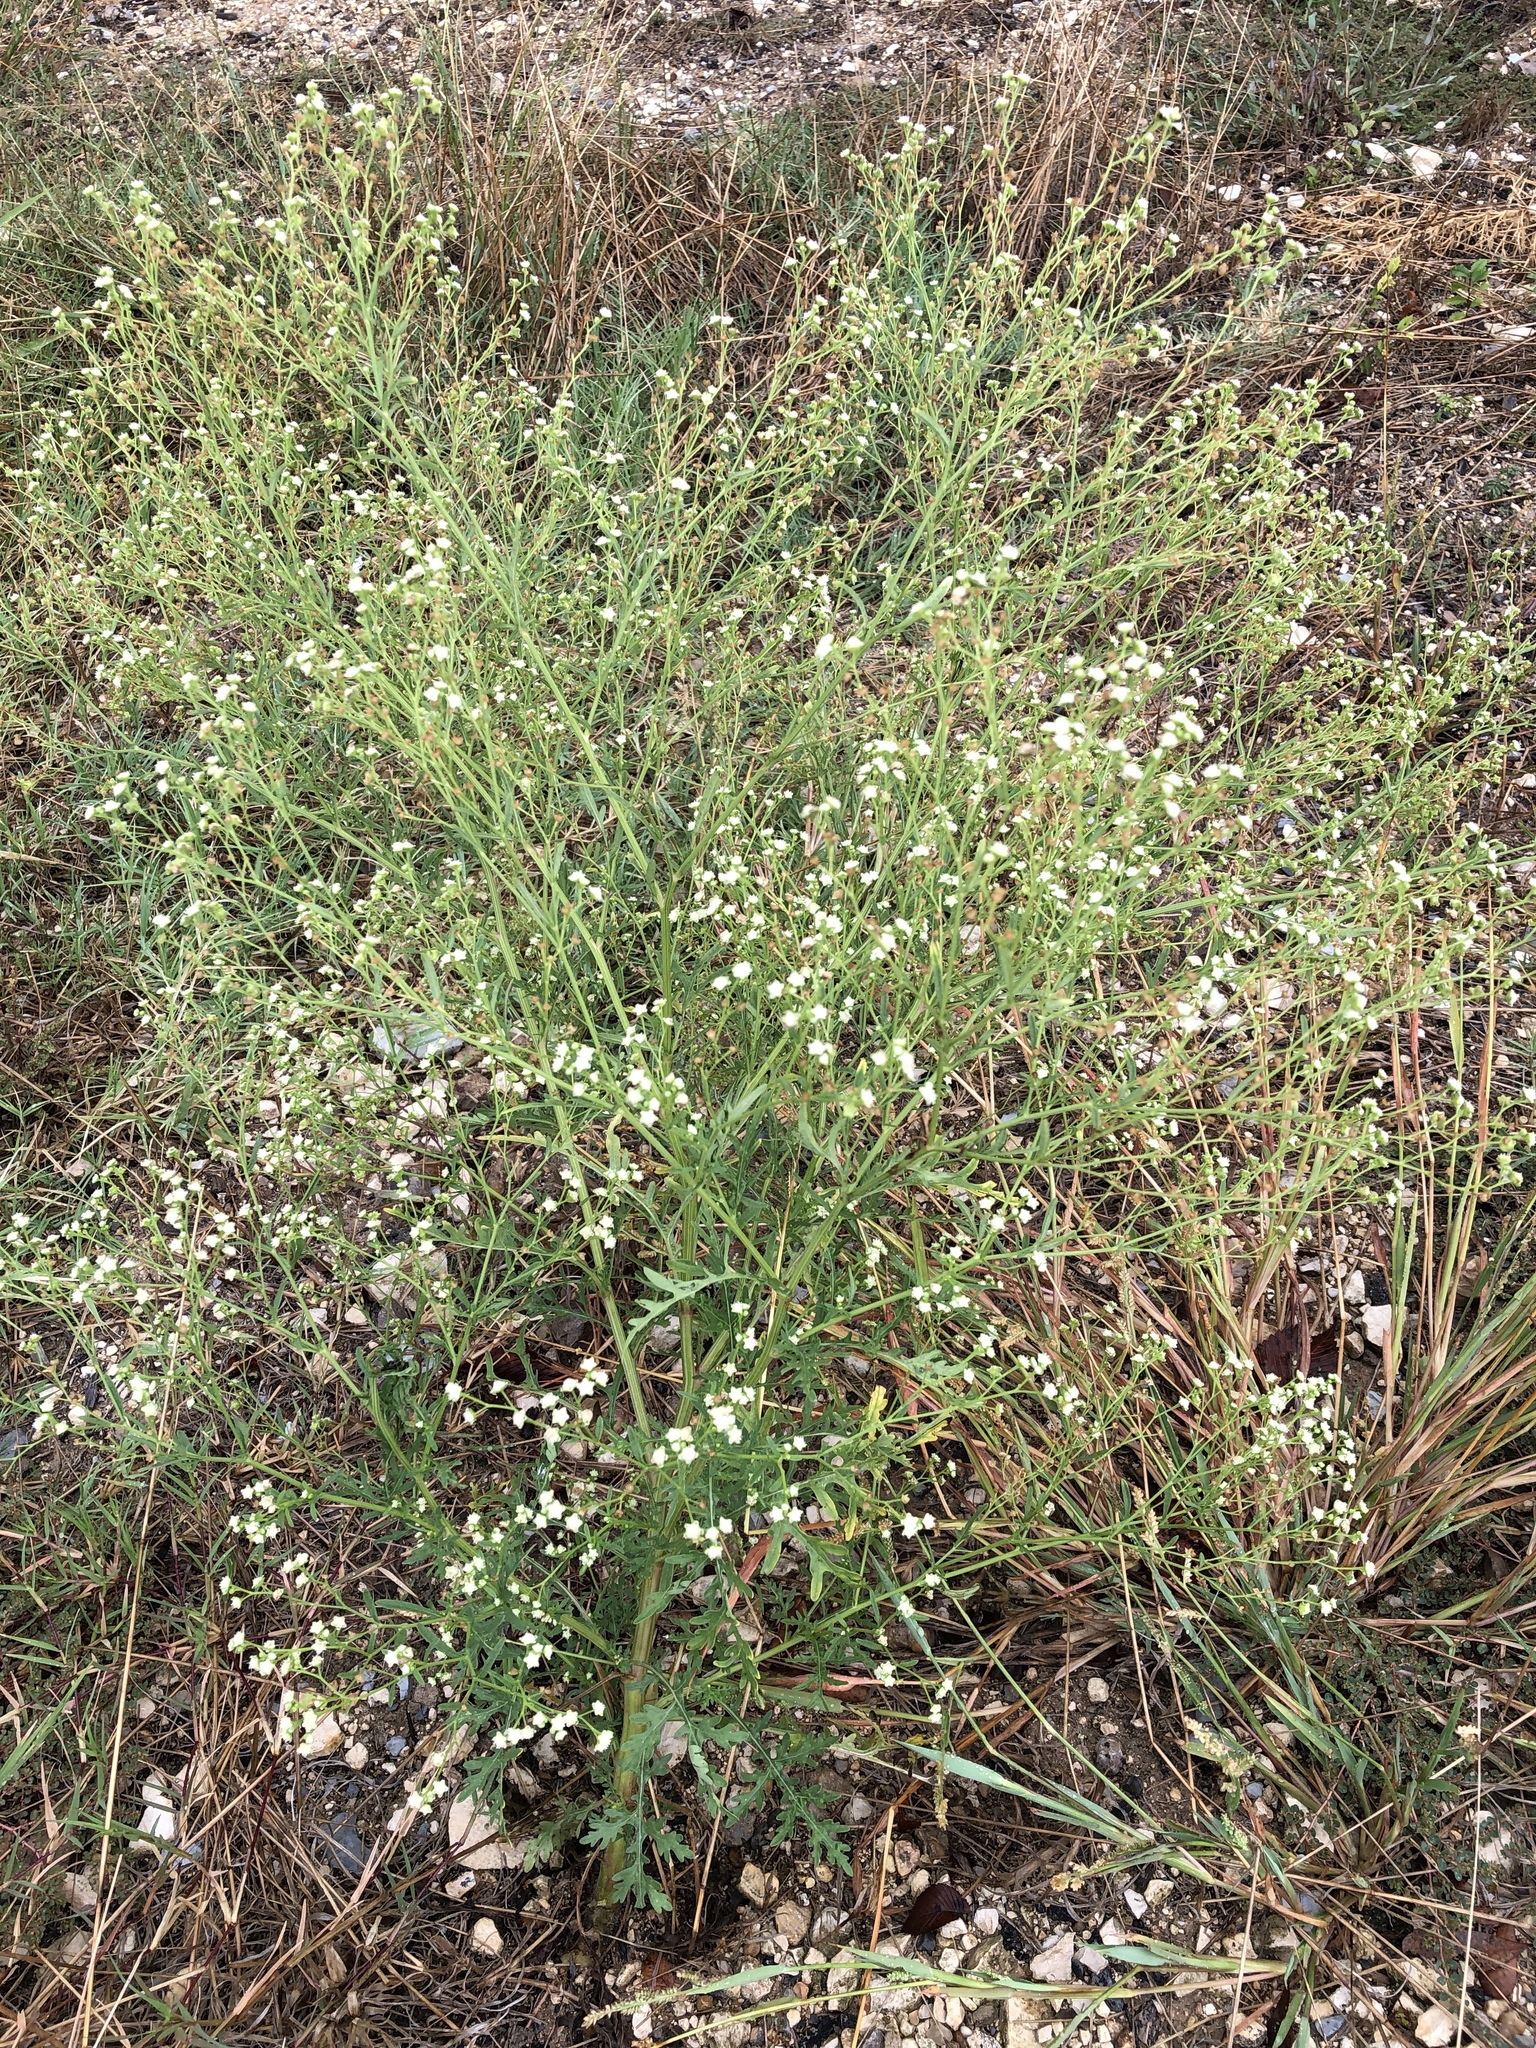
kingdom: Plantae
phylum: Tracheophyta
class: Magnoliopsida
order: Asterales
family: Asteraceae
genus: Parthenium
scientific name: Parthenium hysterophorus
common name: Santa maria feverfew
